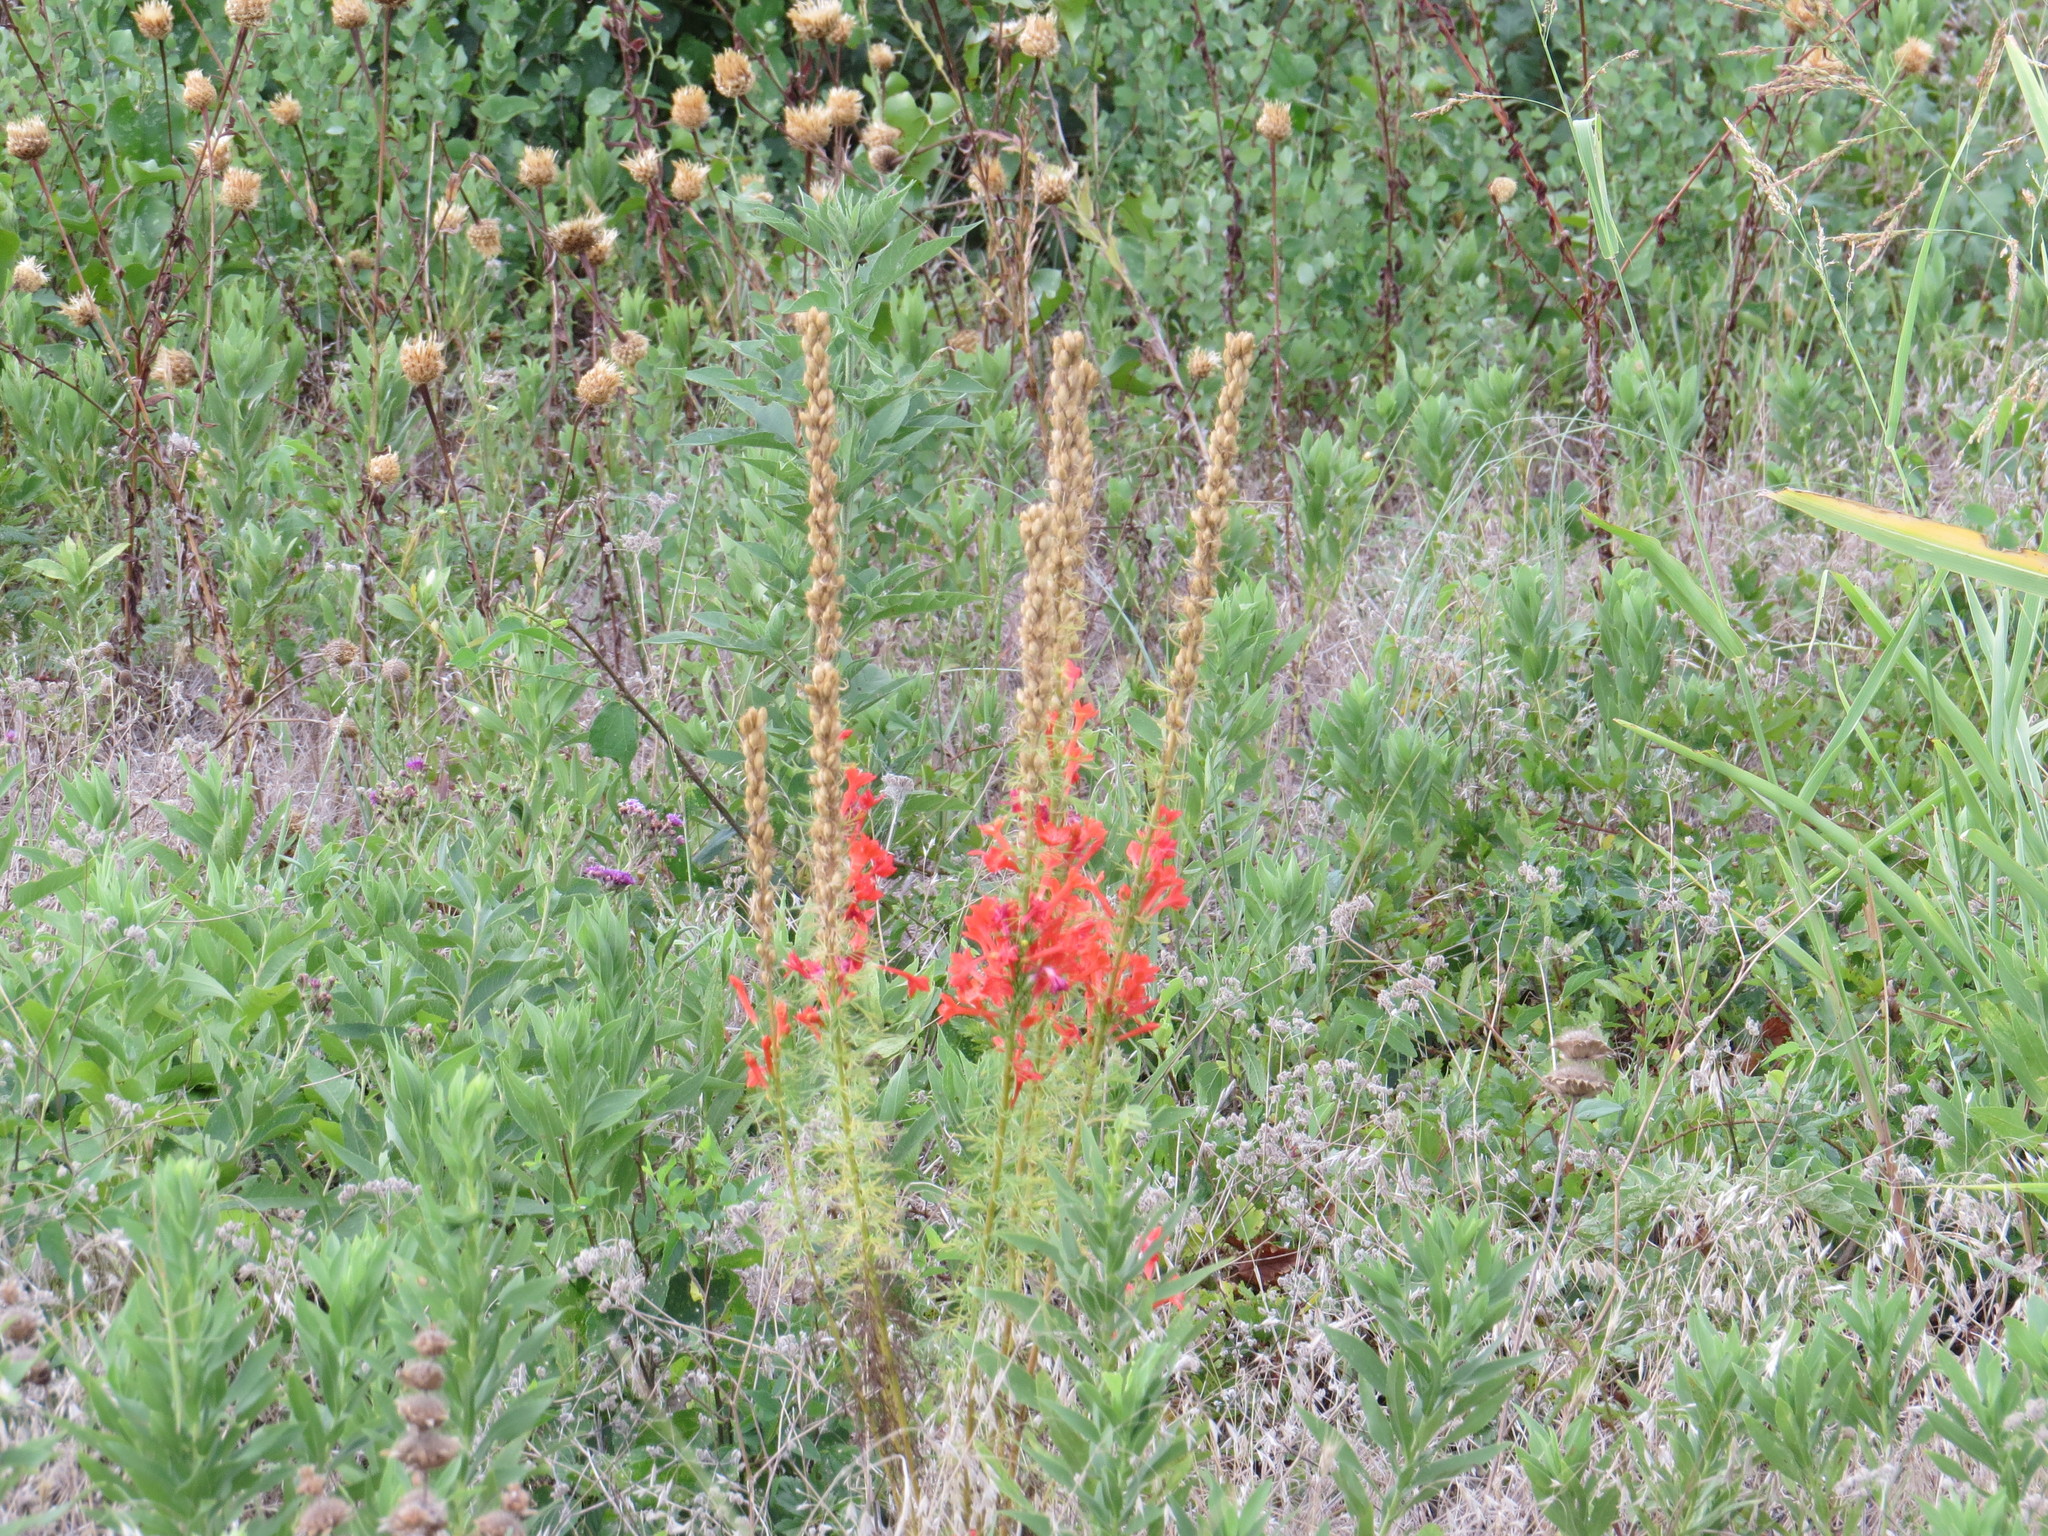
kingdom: Plantae
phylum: Tracheophyta
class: Magnoliopsida
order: Ericales
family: Polemoniaceae
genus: Ipomopsis
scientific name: Ipomopsis rubra
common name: Skyrocket
